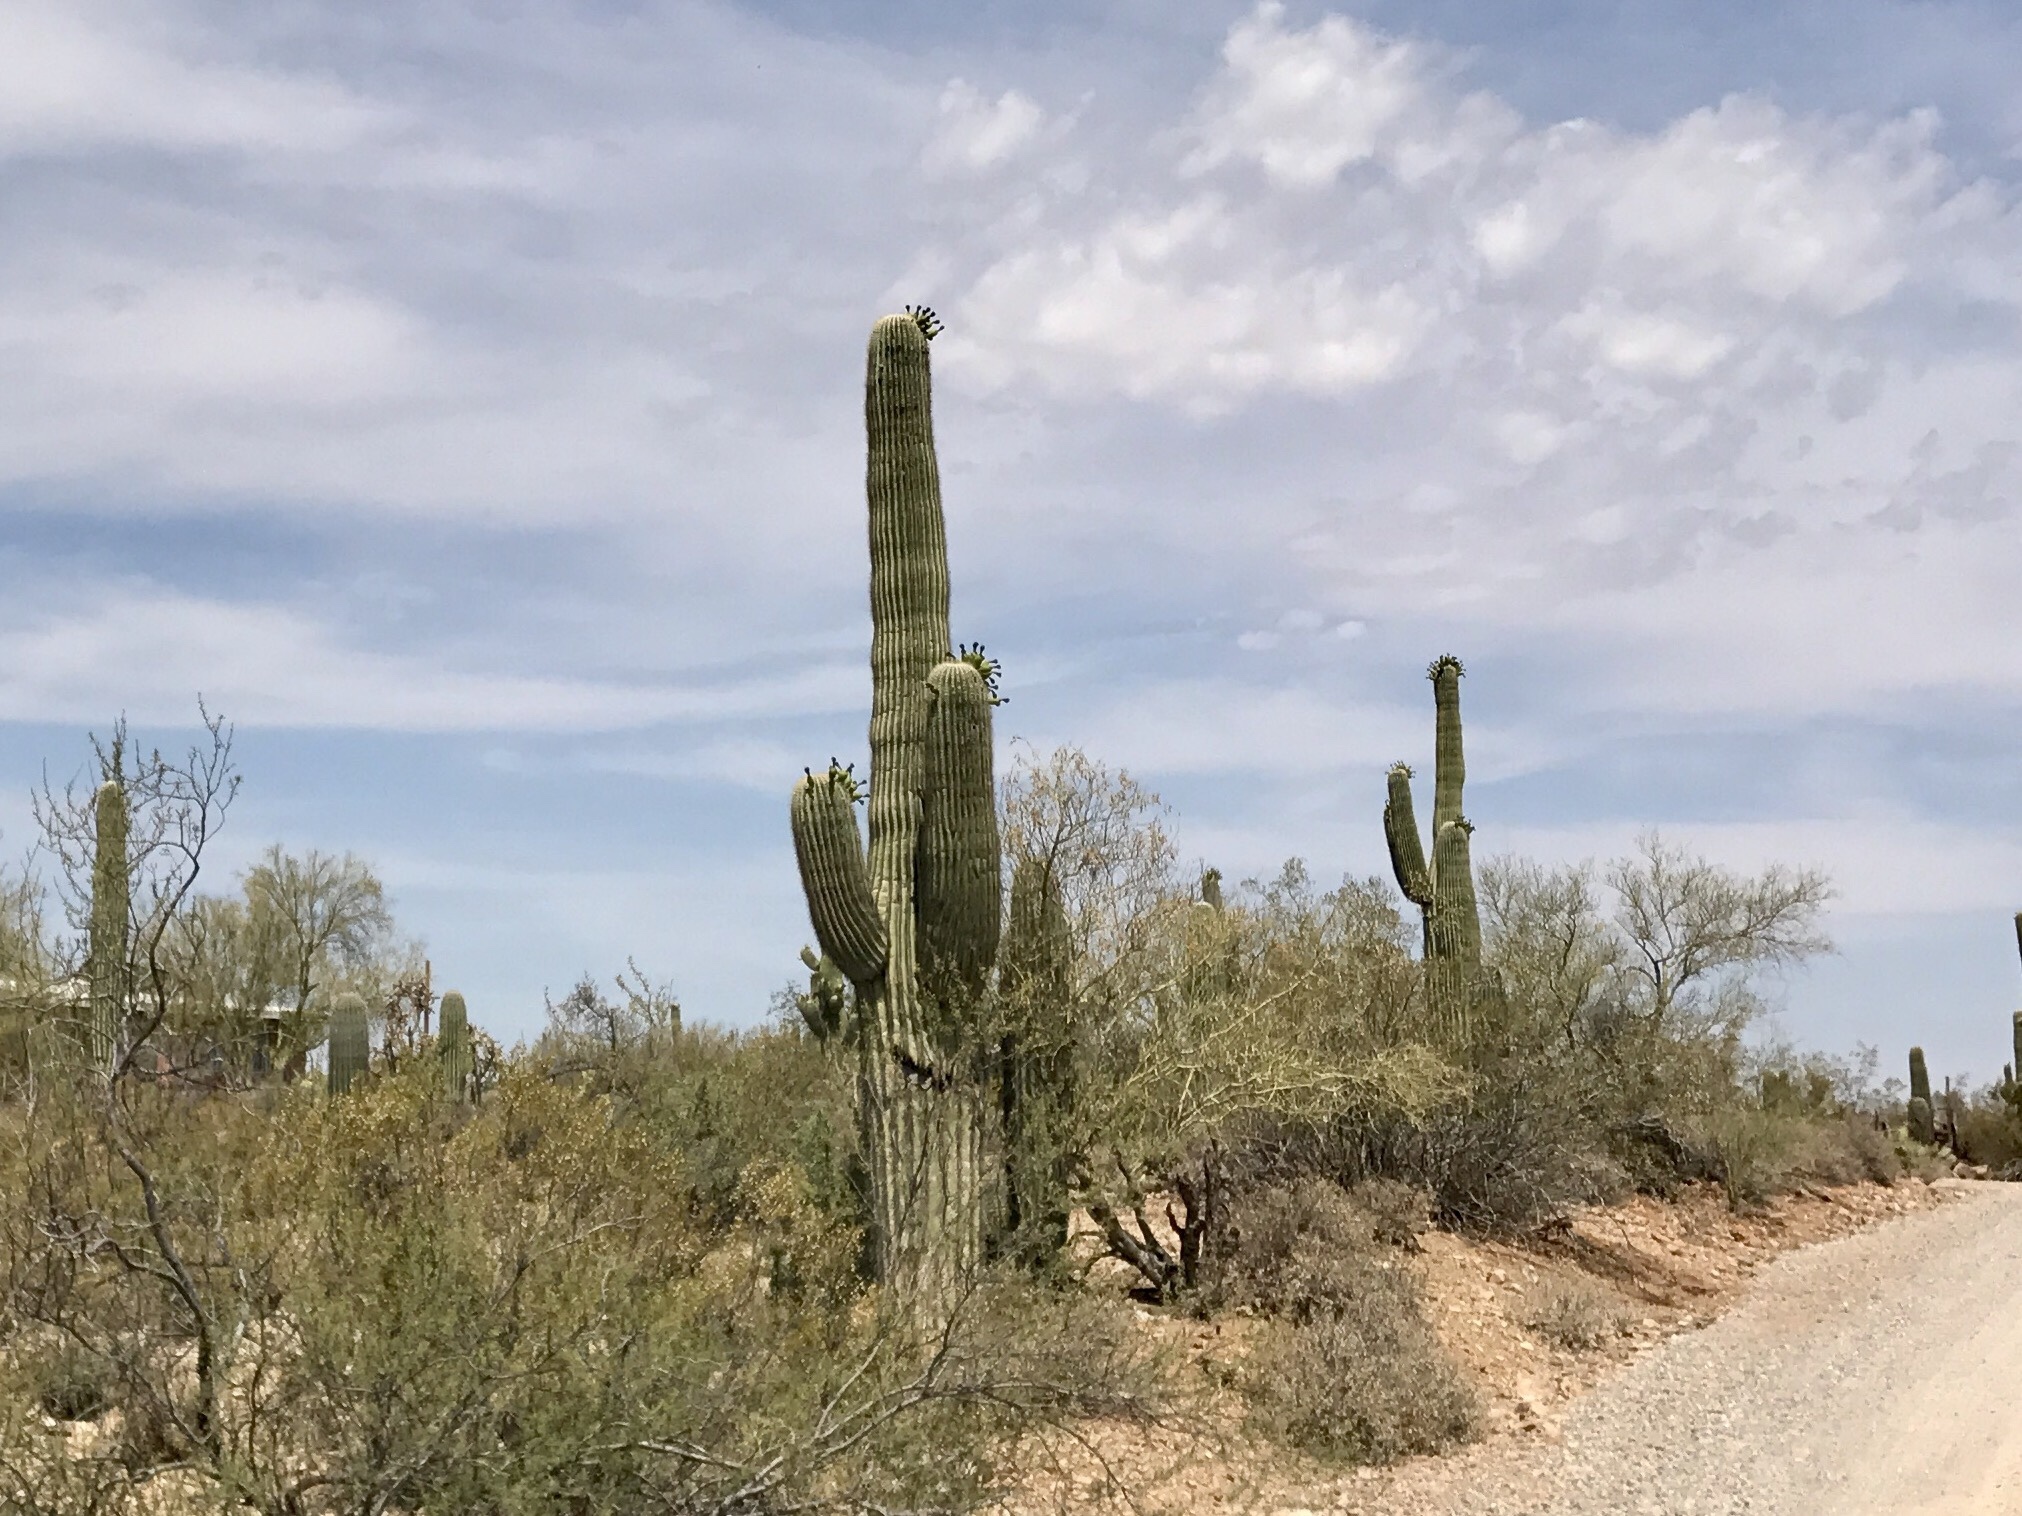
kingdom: Plantae
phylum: Tracheophyta
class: Magnoliopsida
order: Caryophyllales
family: Cactaceae
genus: Carnegiea
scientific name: Carnegiea gigantea
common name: Saguaro
